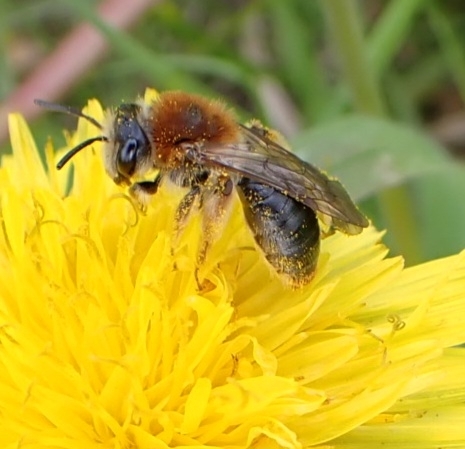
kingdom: Animalia
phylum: Arthropoda
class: Insecta
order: Hymenoptera
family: Andrenidae
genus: Andrena
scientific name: Andrena haemorrhoa
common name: Early mining bee
